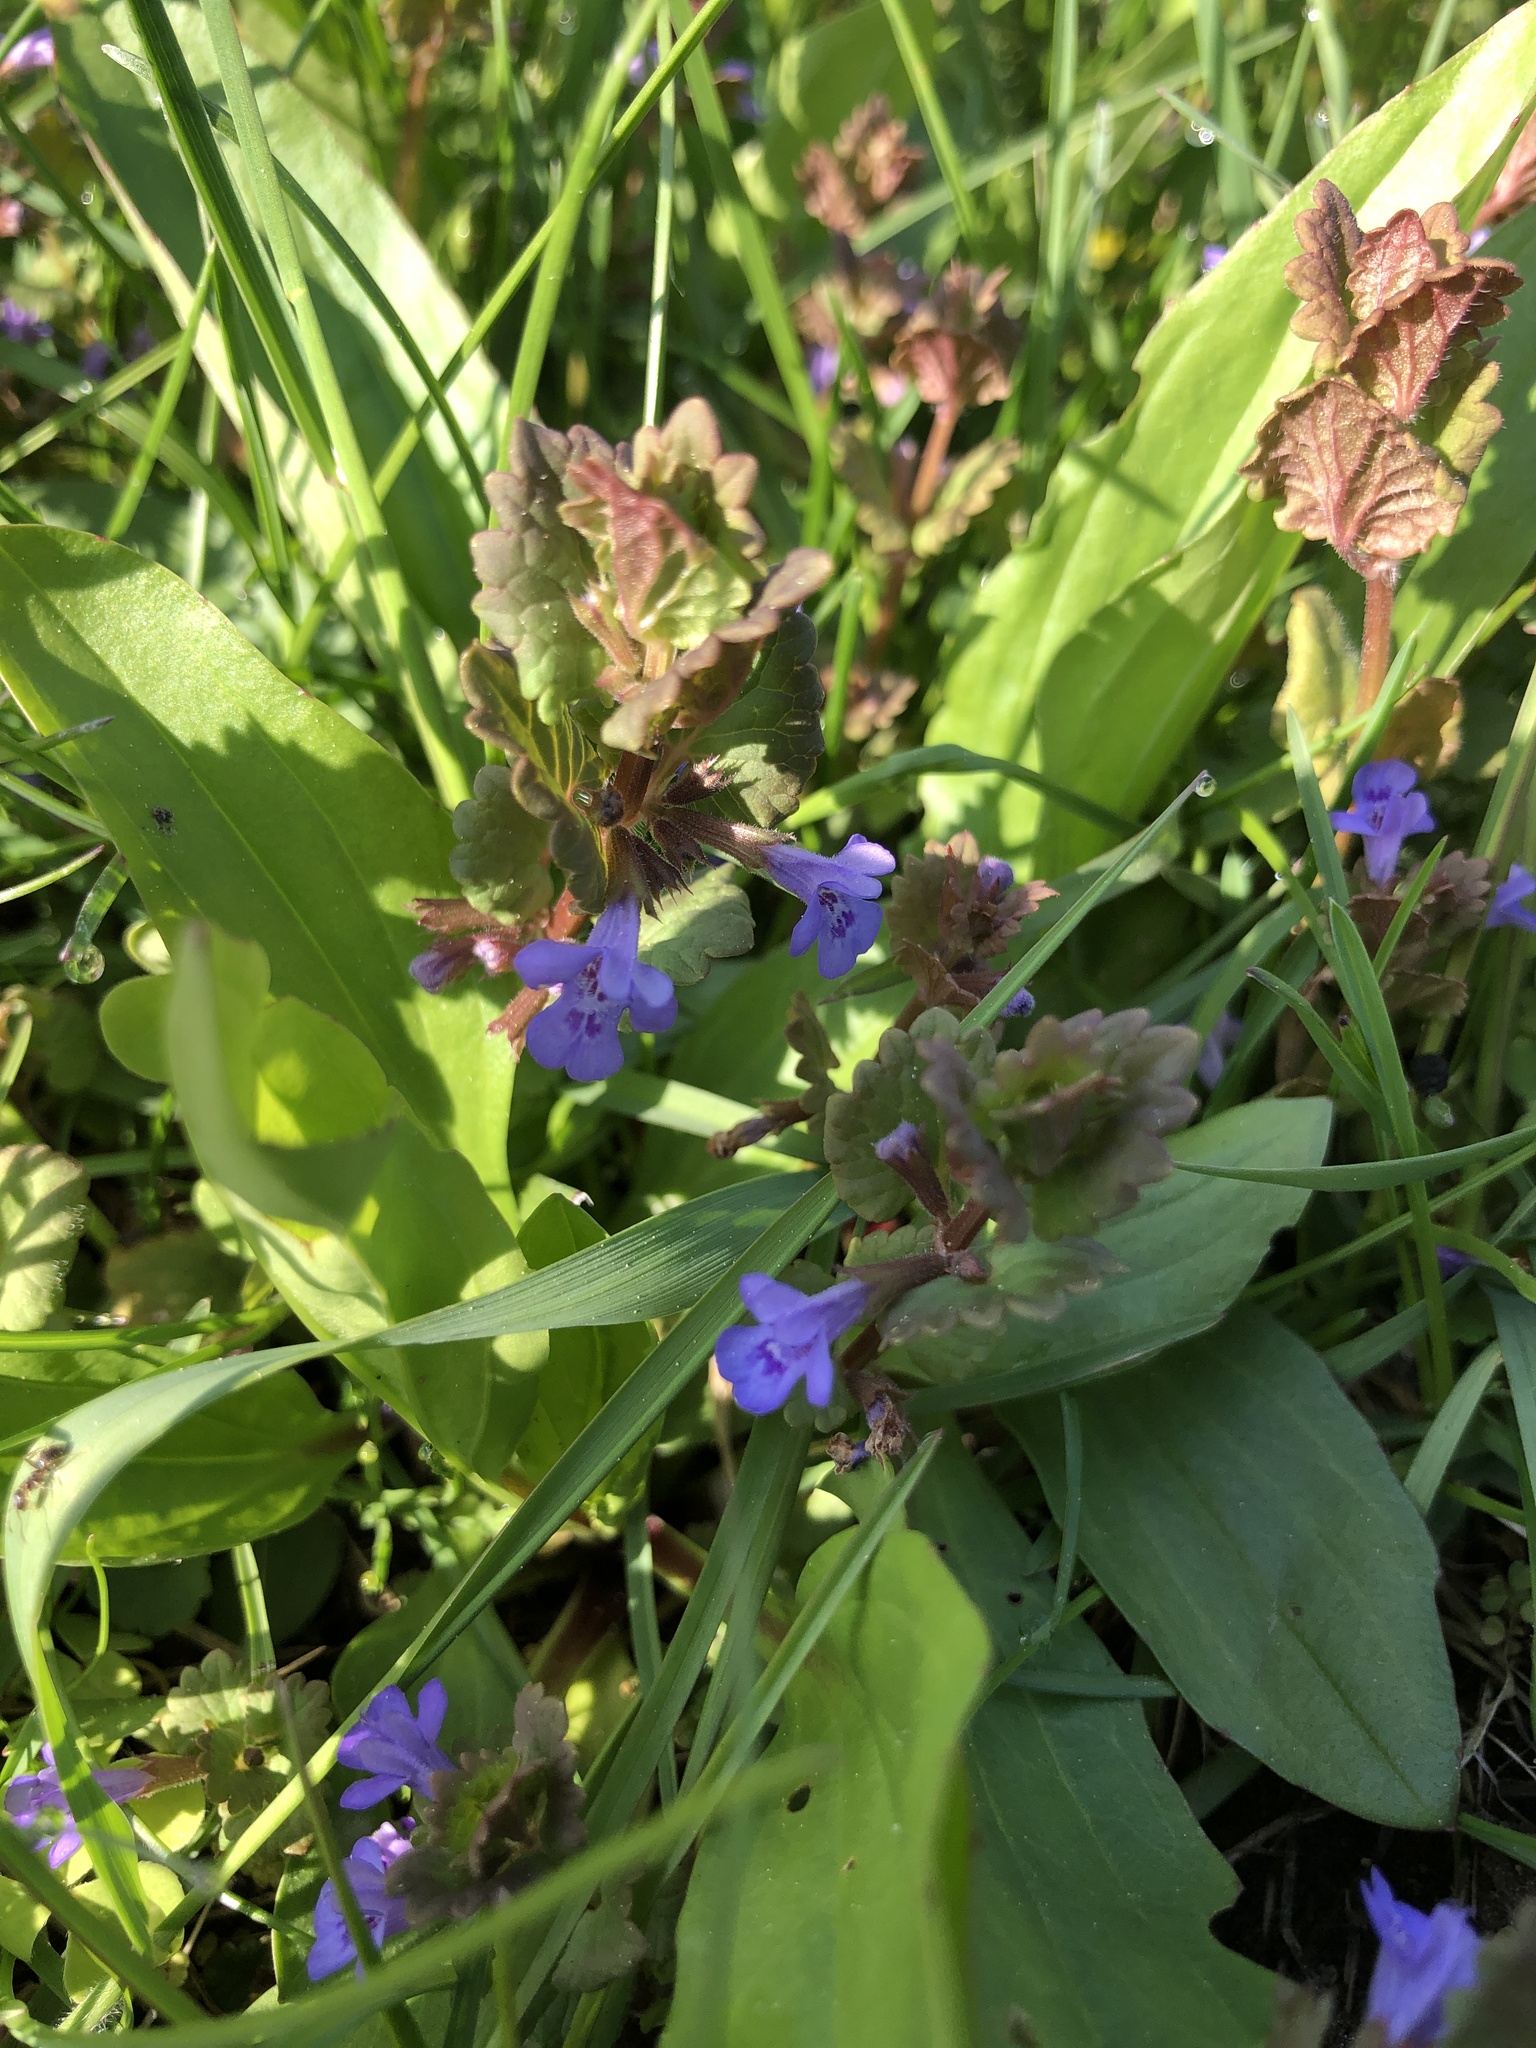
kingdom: Plantae
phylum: Tracheophyta
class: Magnoliopsida
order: Lamiales
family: Lamiaceae
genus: Glechoma
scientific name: Glechoma hederacea
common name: Ground ivy
